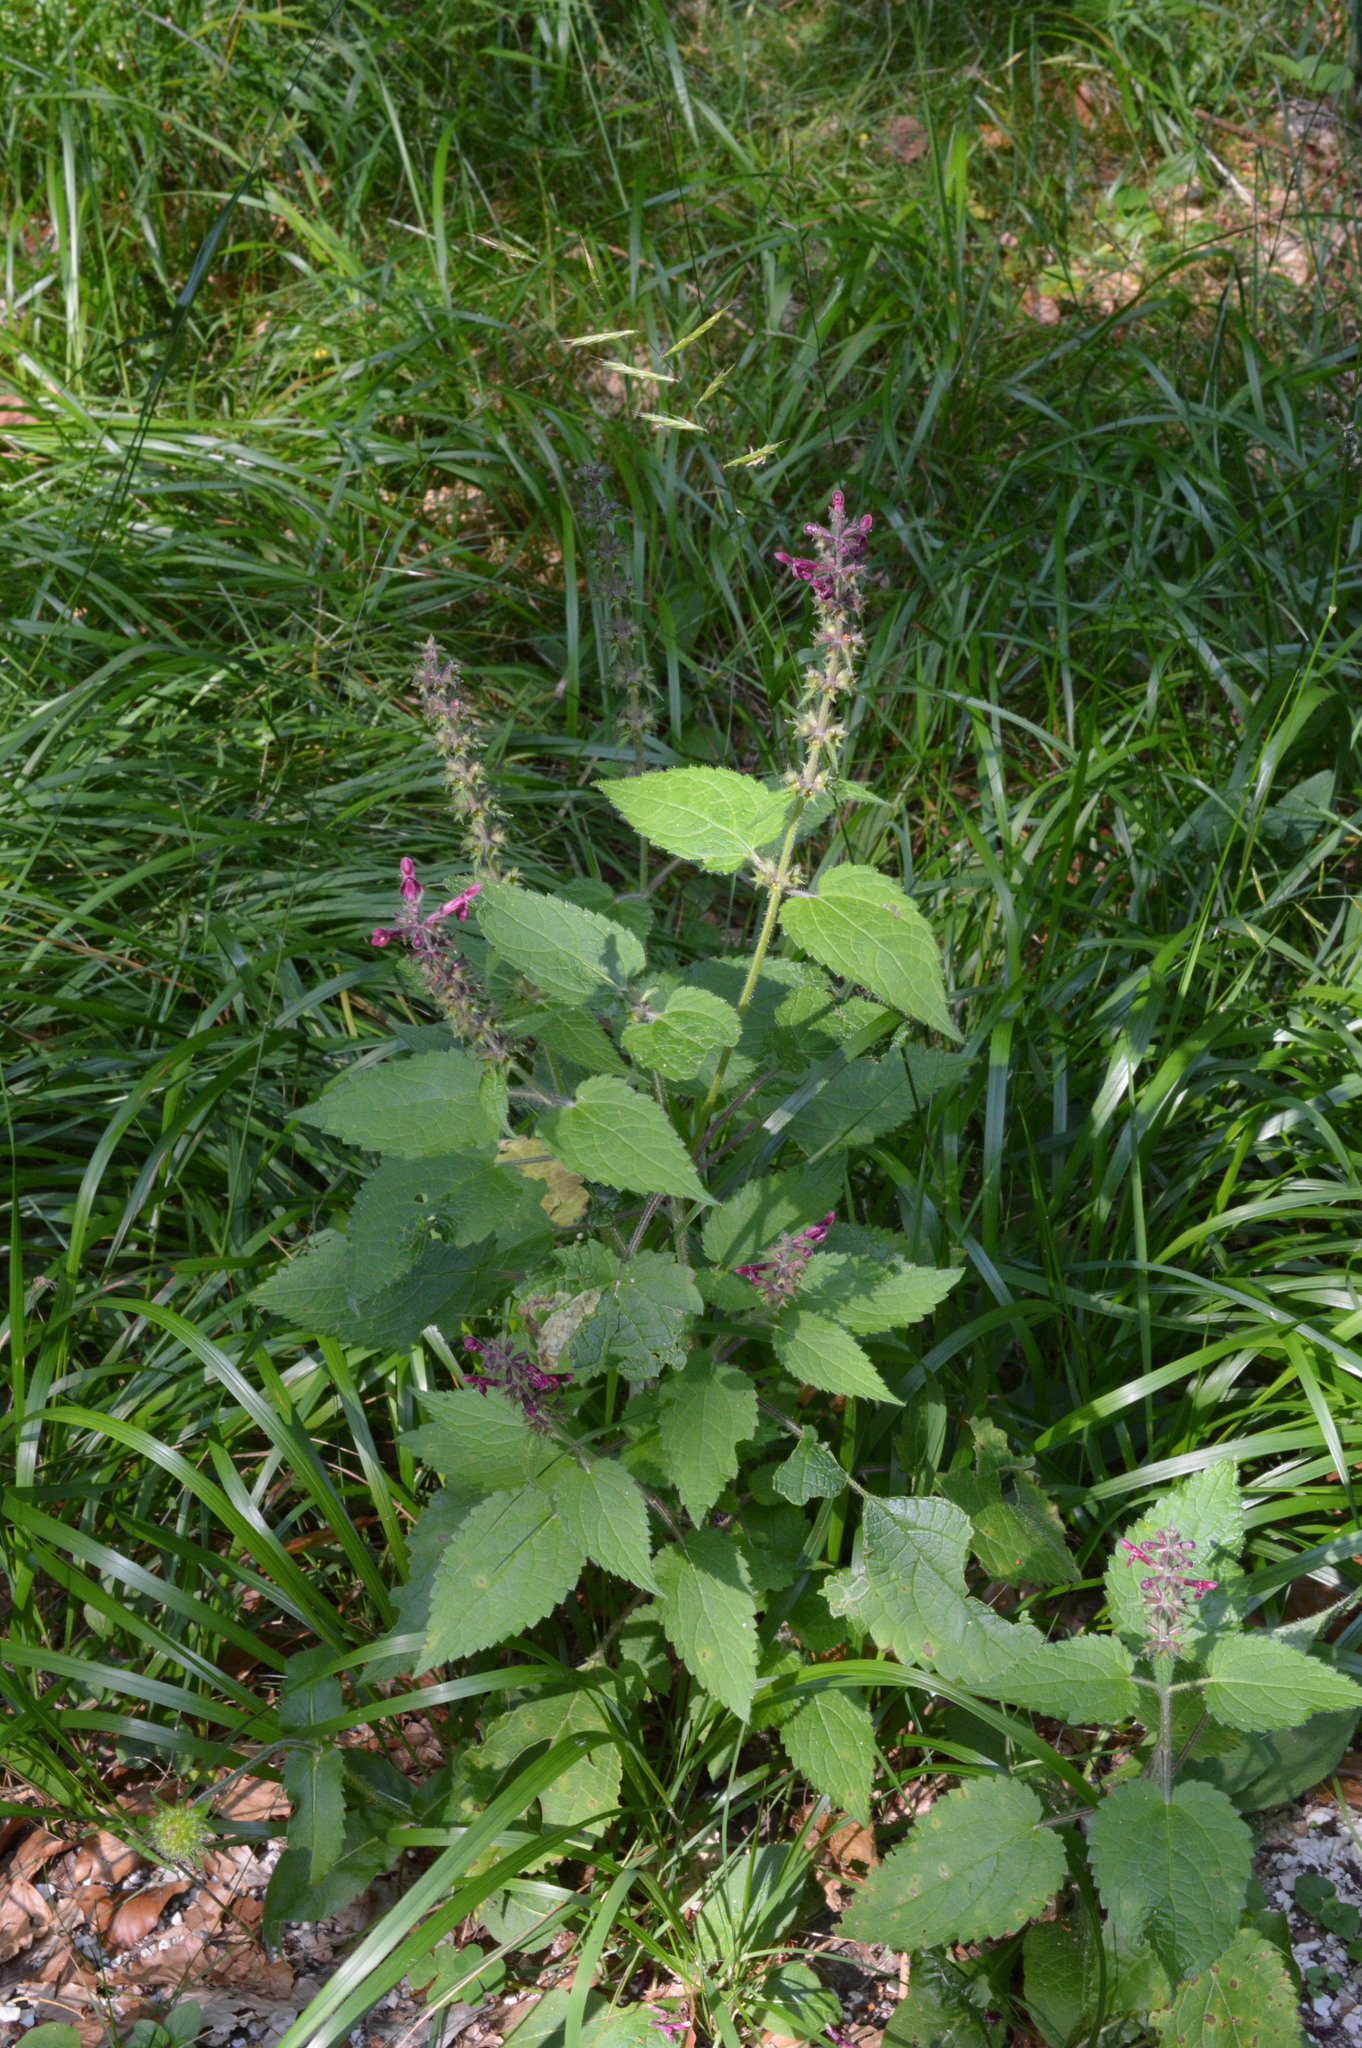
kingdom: Plantae
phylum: Tracheophyta
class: Magnoliopsida
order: Lamiales
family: Lamiaceae
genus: Stachys
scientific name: Stachys sylvatica
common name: Hedge woundwort
